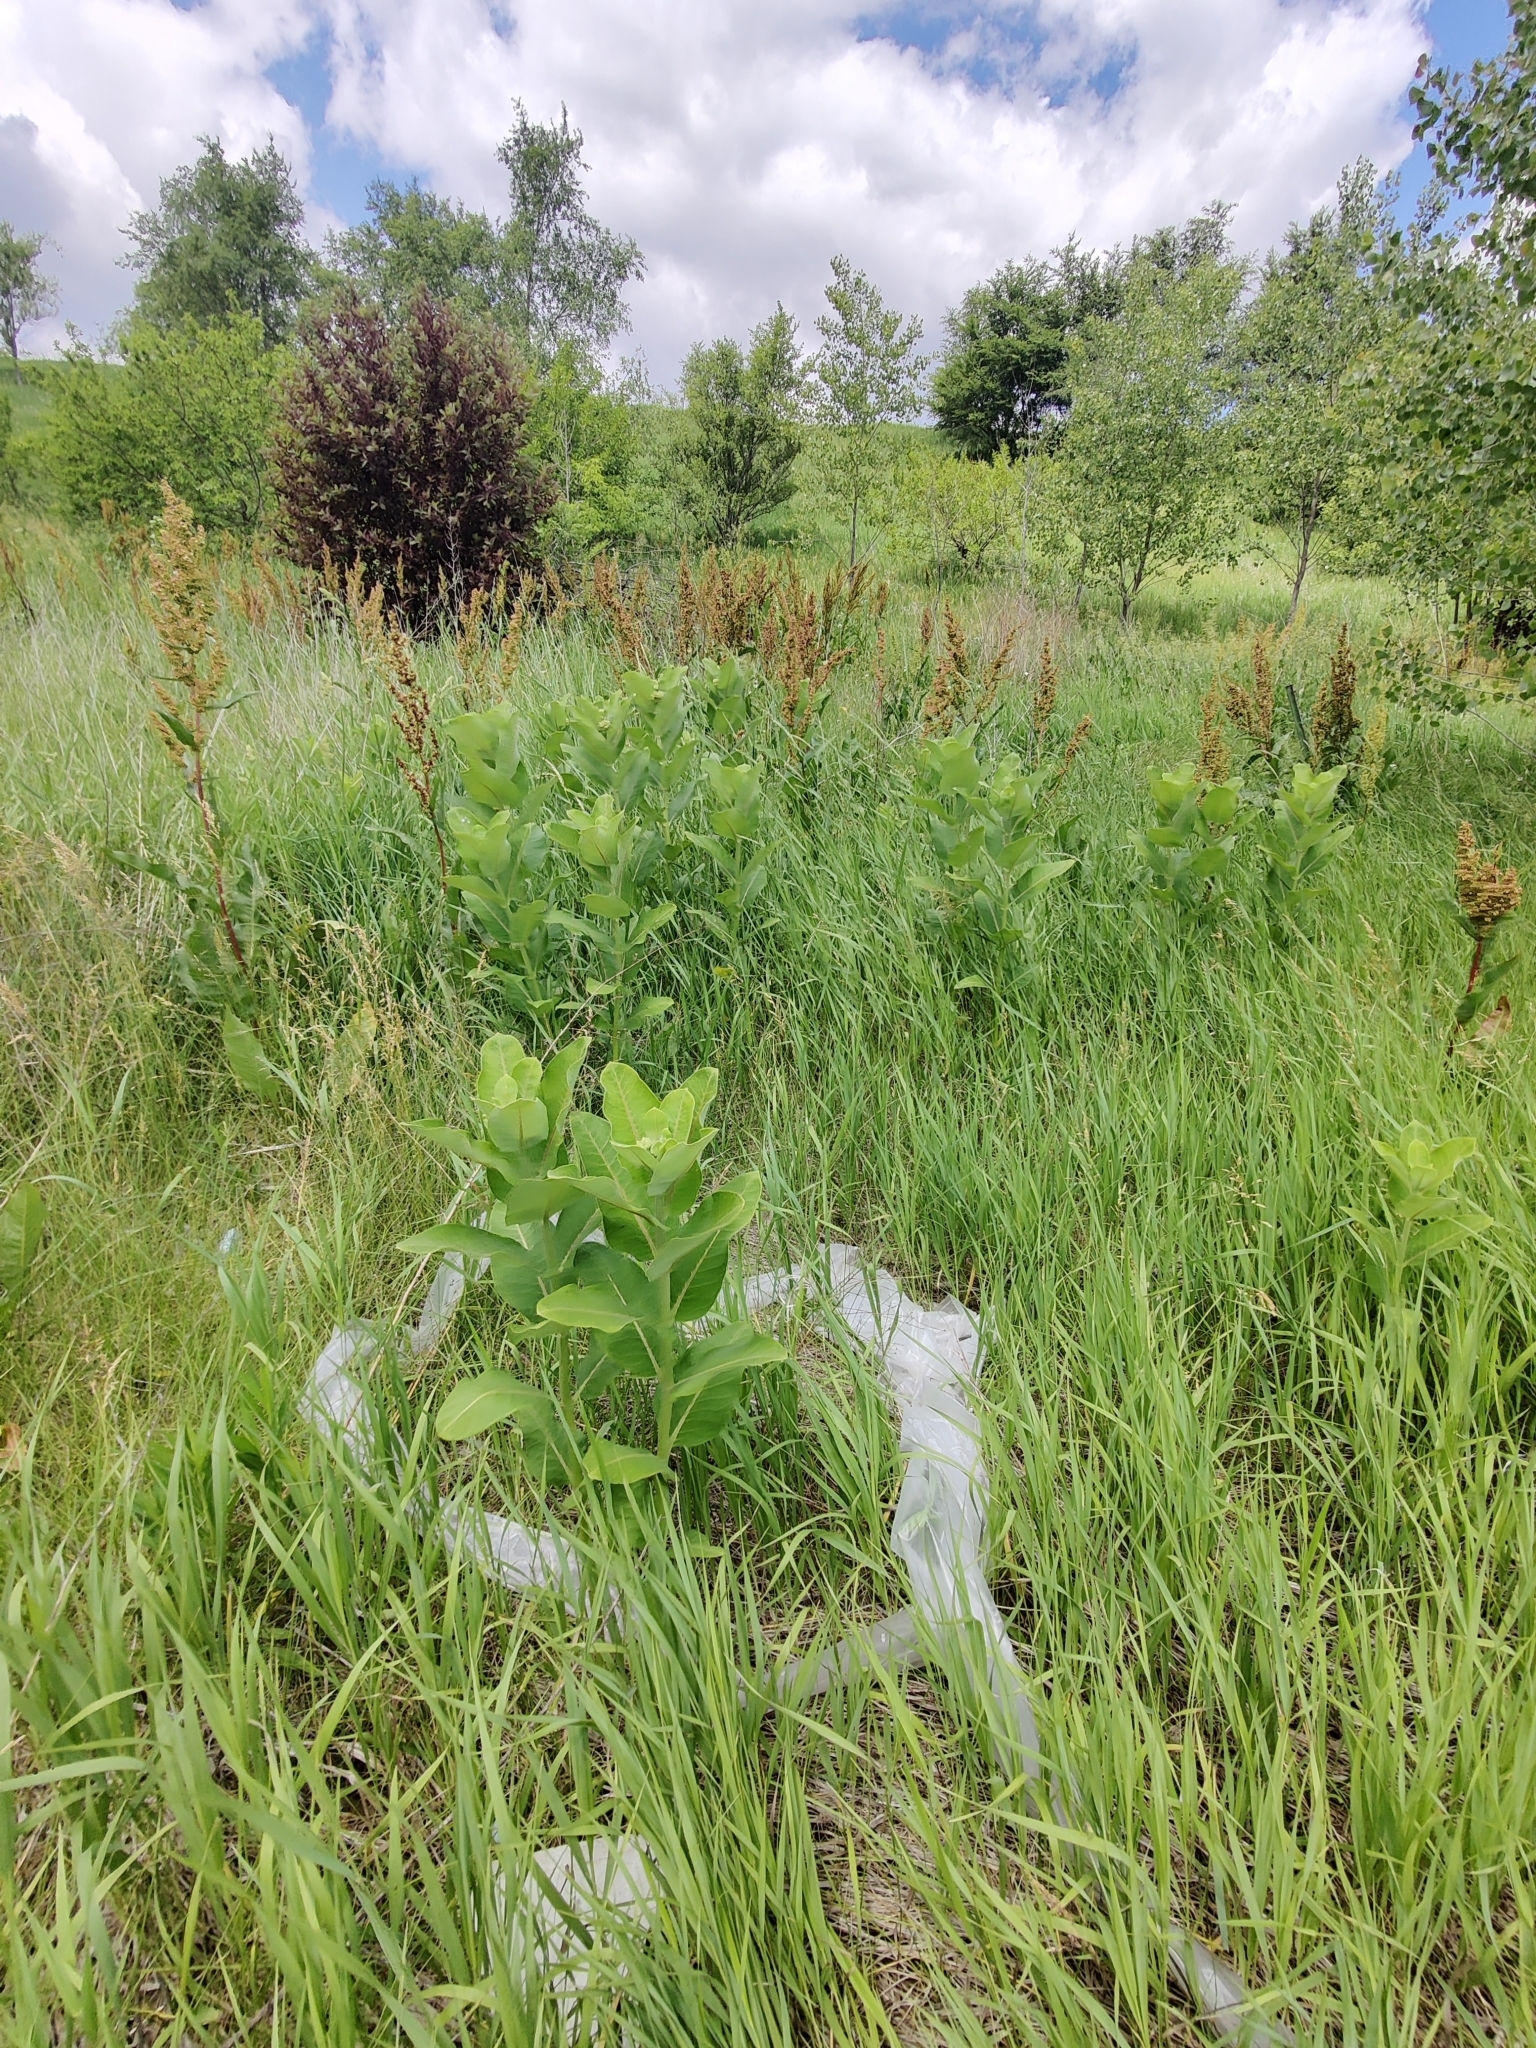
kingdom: Plantae
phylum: Tracheophyta
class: Magnoliopsida
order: Gentianales
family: Apocynaceae
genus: Asclepias
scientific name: Asclepias syriaca
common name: Common milkweed
